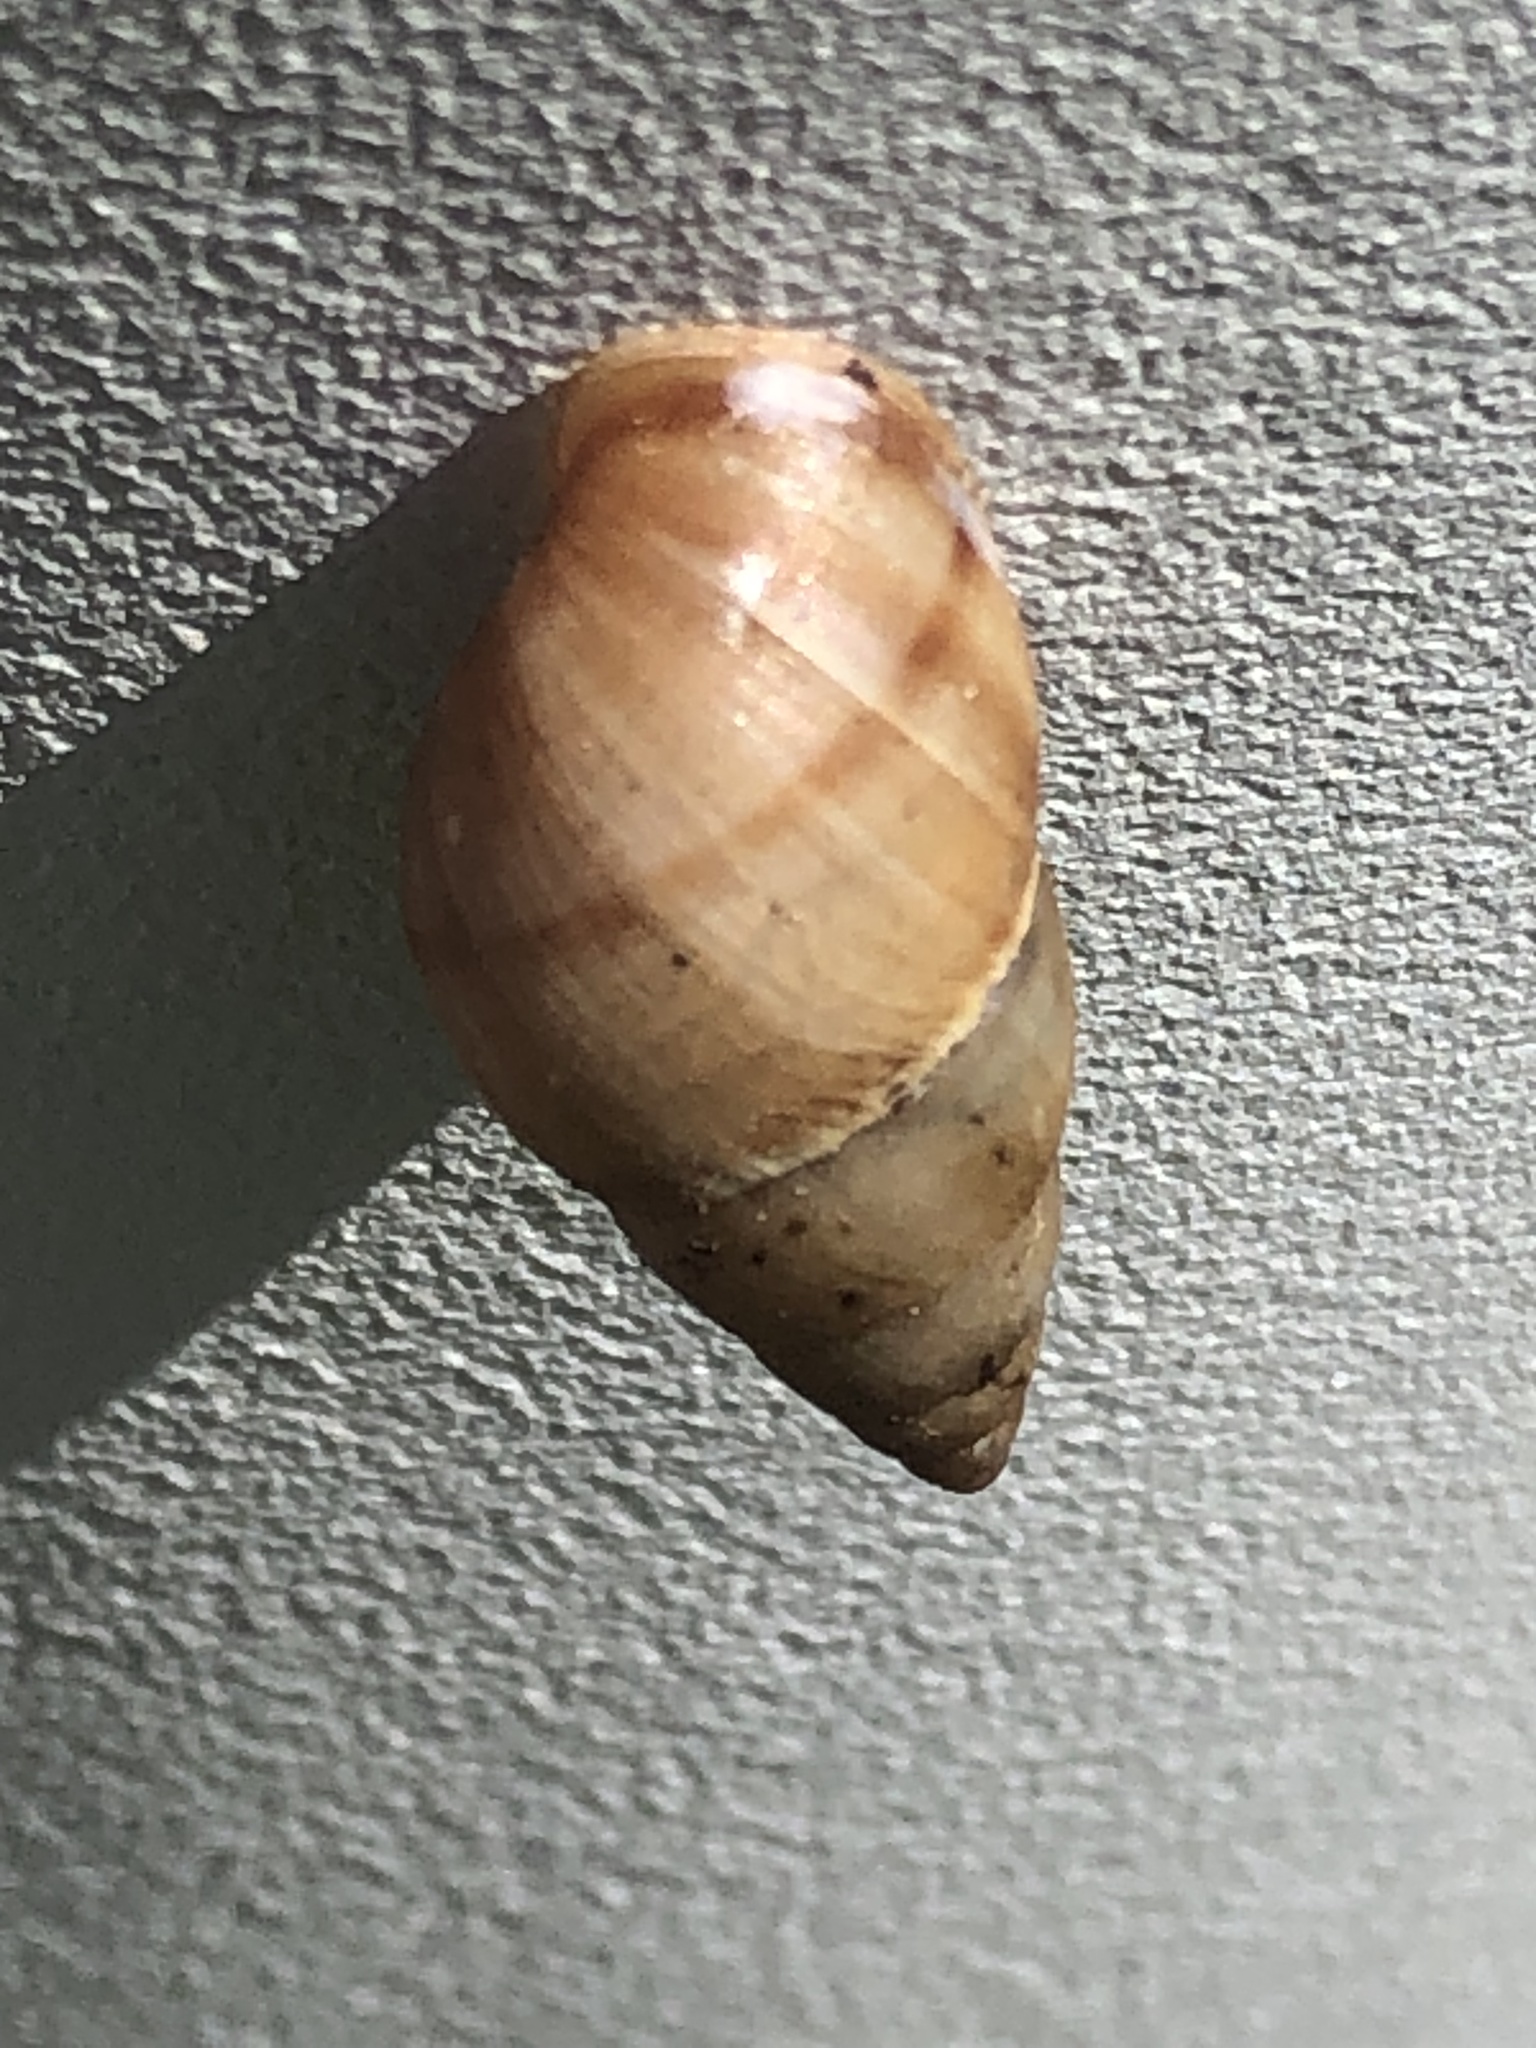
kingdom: Animalia
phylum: Mollusca
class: Gastropoda
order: Stylommatophora
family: Bulimulidae
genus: Bulimulus
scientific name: Bulimulus guadalupensis
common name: West indian bulimulus
